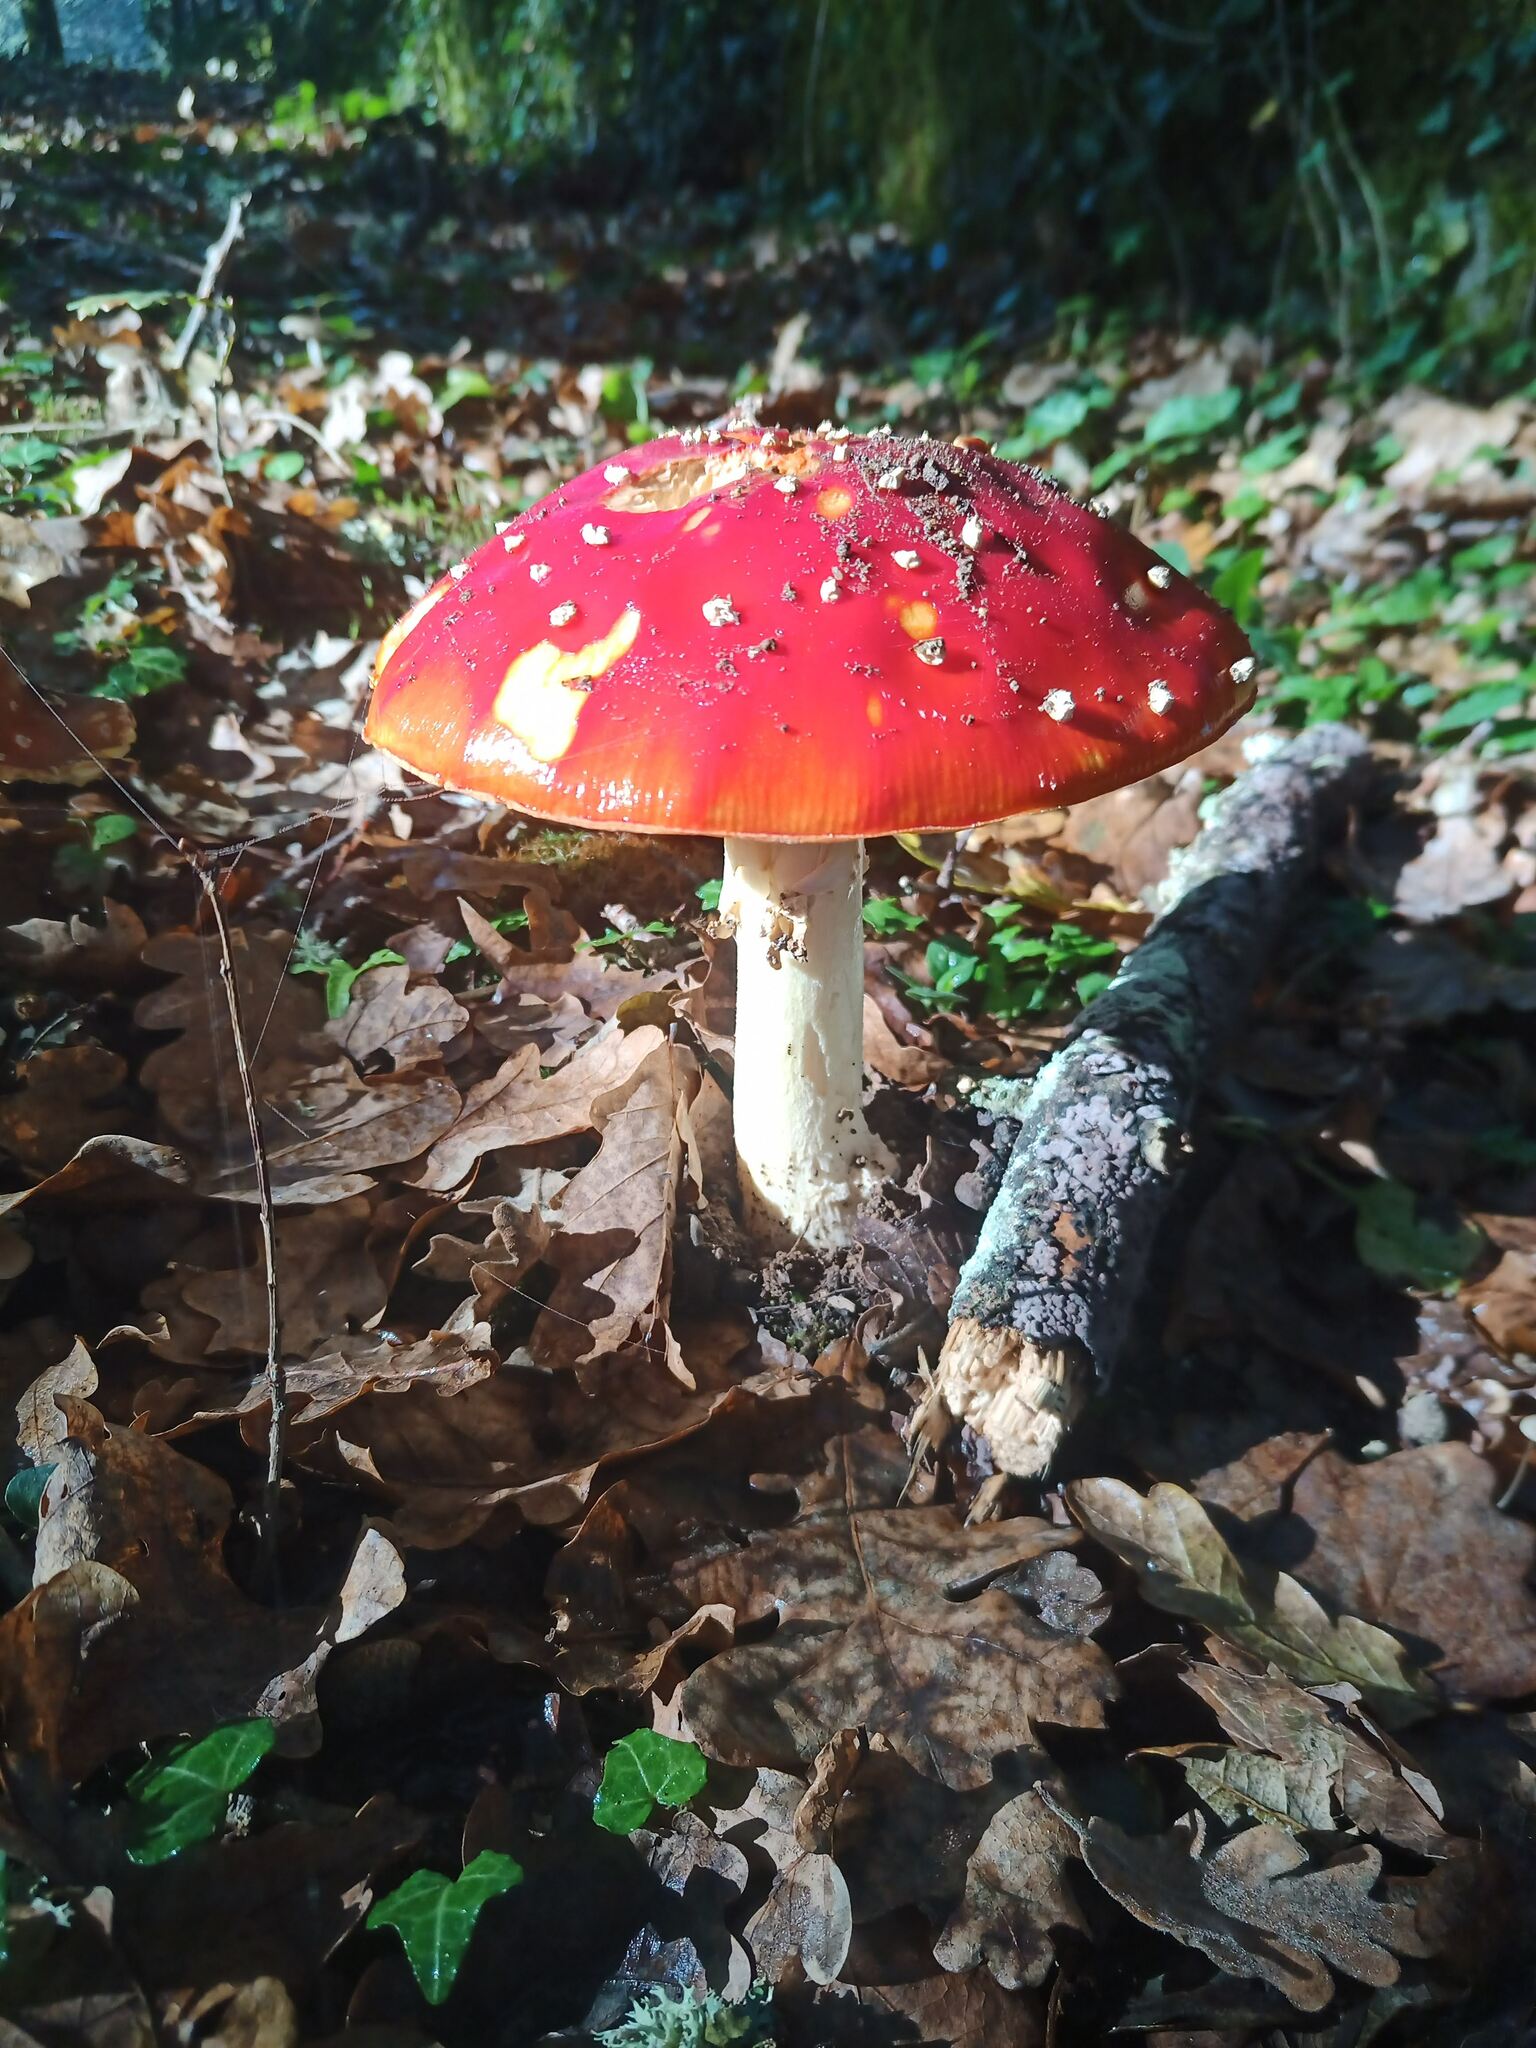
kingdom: Fungi
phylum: Basidiomycota
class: Agaricomycetes
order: Agaricales
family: Amanitaceae
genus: Amanita
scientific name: Amanita muscaria
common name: Fly agaric
